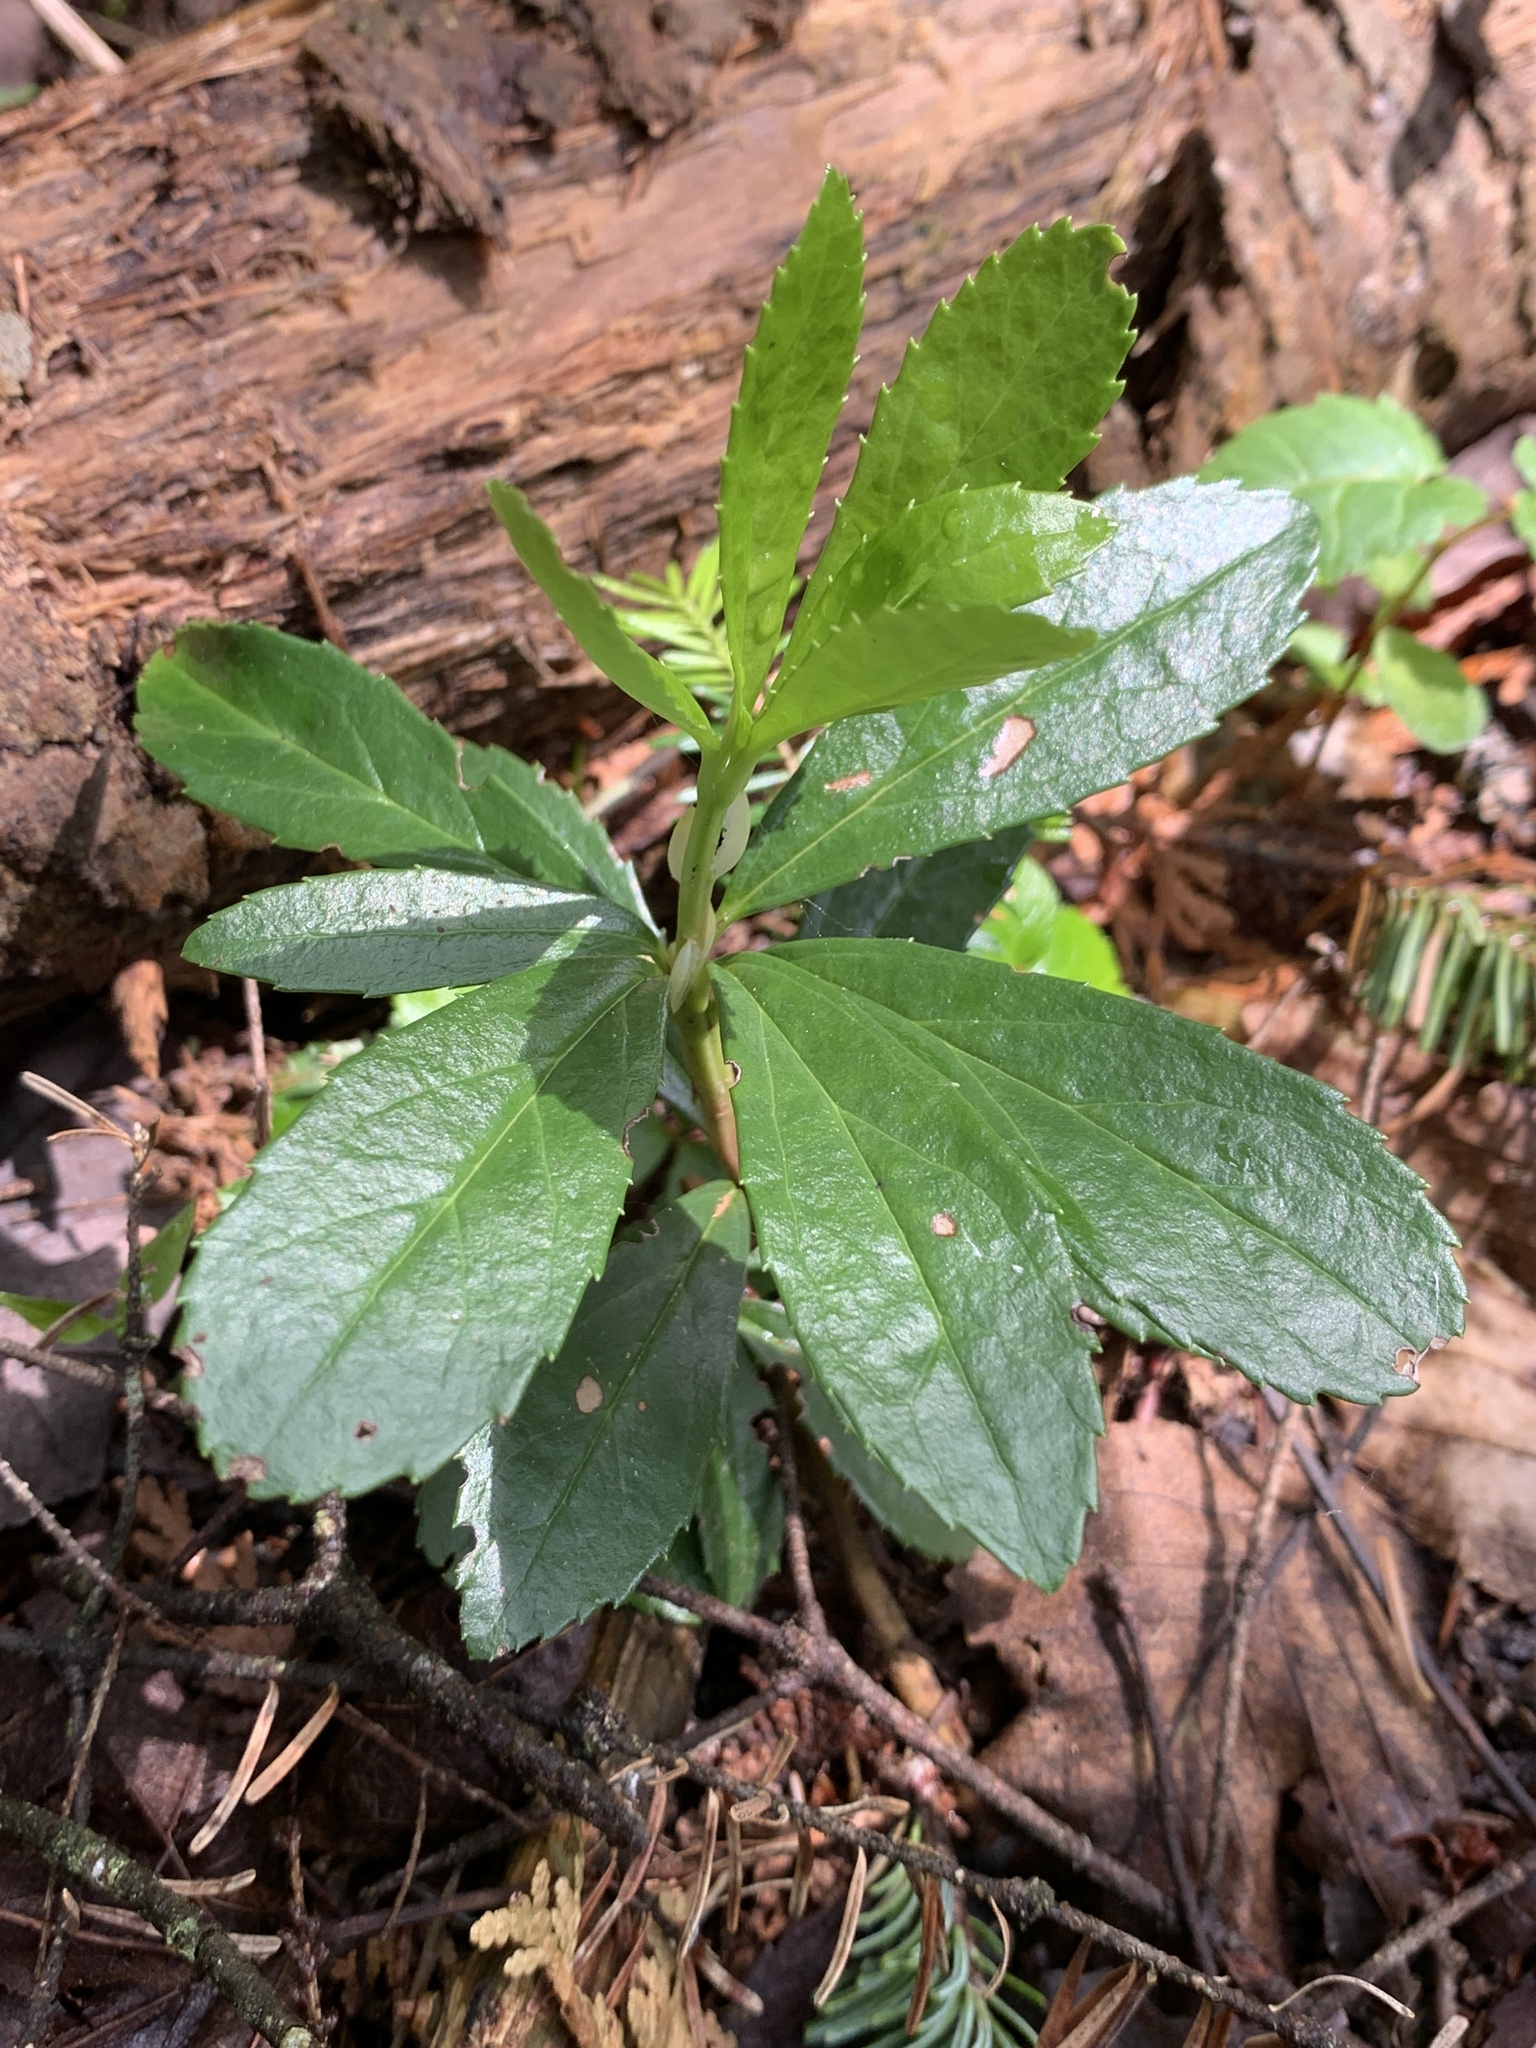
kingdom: Plantae
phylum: Tracheophyta
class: Magnoliopsida
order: Ericales
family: Ericaceae
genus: Chimaphila
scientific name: Chimaphila umbellata
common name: Pipsissewa
